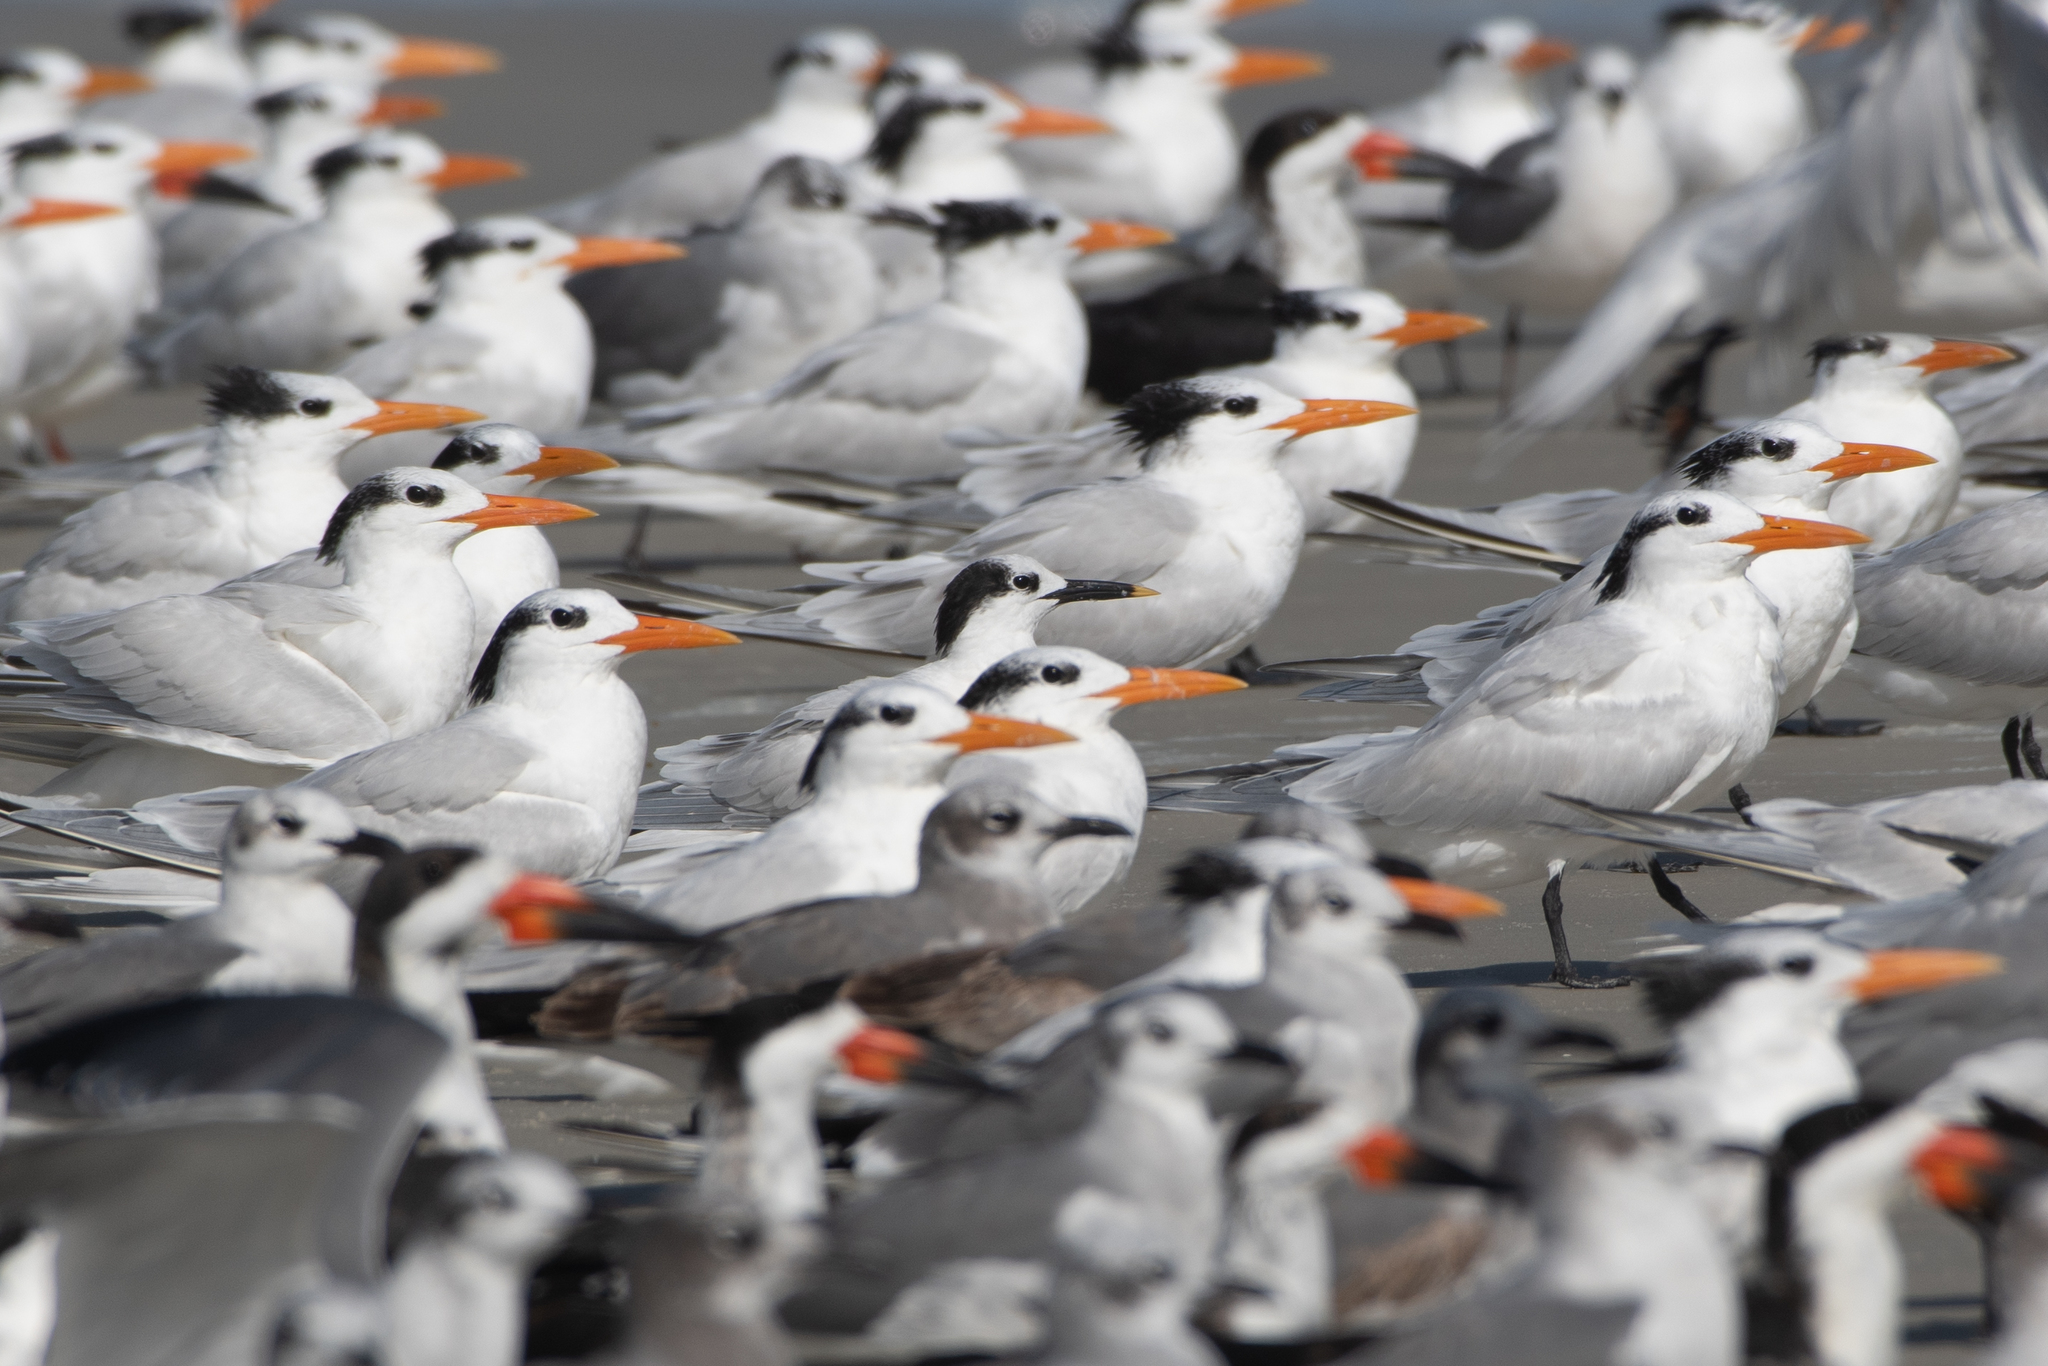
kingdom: Animalia
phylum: Chordata
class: Aves
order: Charadriiformes
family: Laridae
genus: Thalasseus
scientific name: Thalasseus sandvicensis
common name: Sandwich tern
